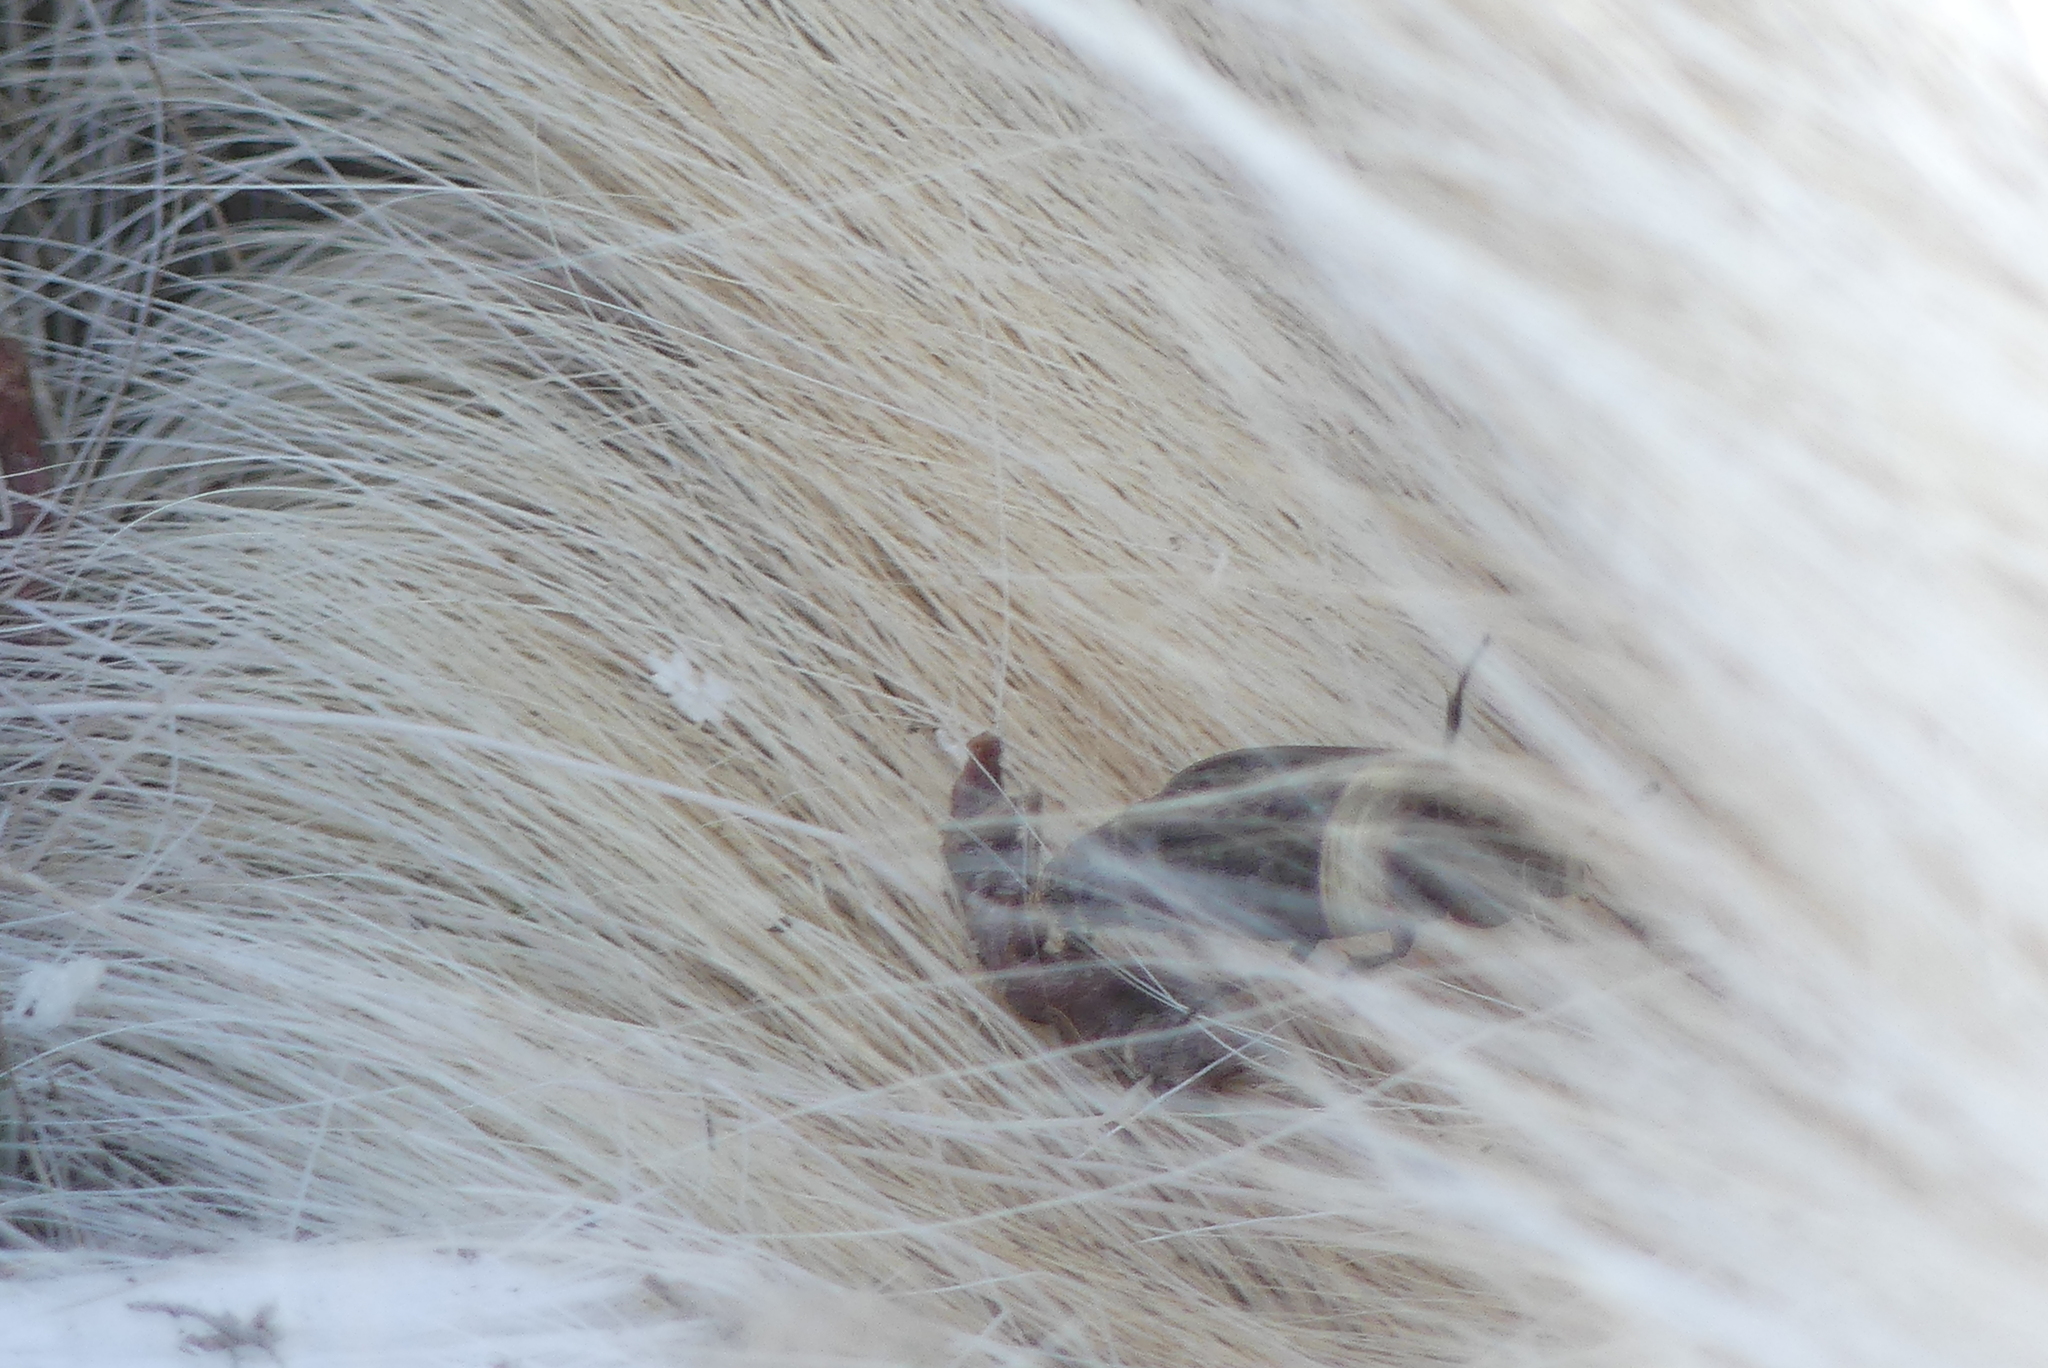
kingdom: Animalia
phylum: Arthropoda
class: Insecta
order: Coleoptera
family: Staphylinidae
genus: Thanatophilus
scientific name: Thanatophilus lapponicus
